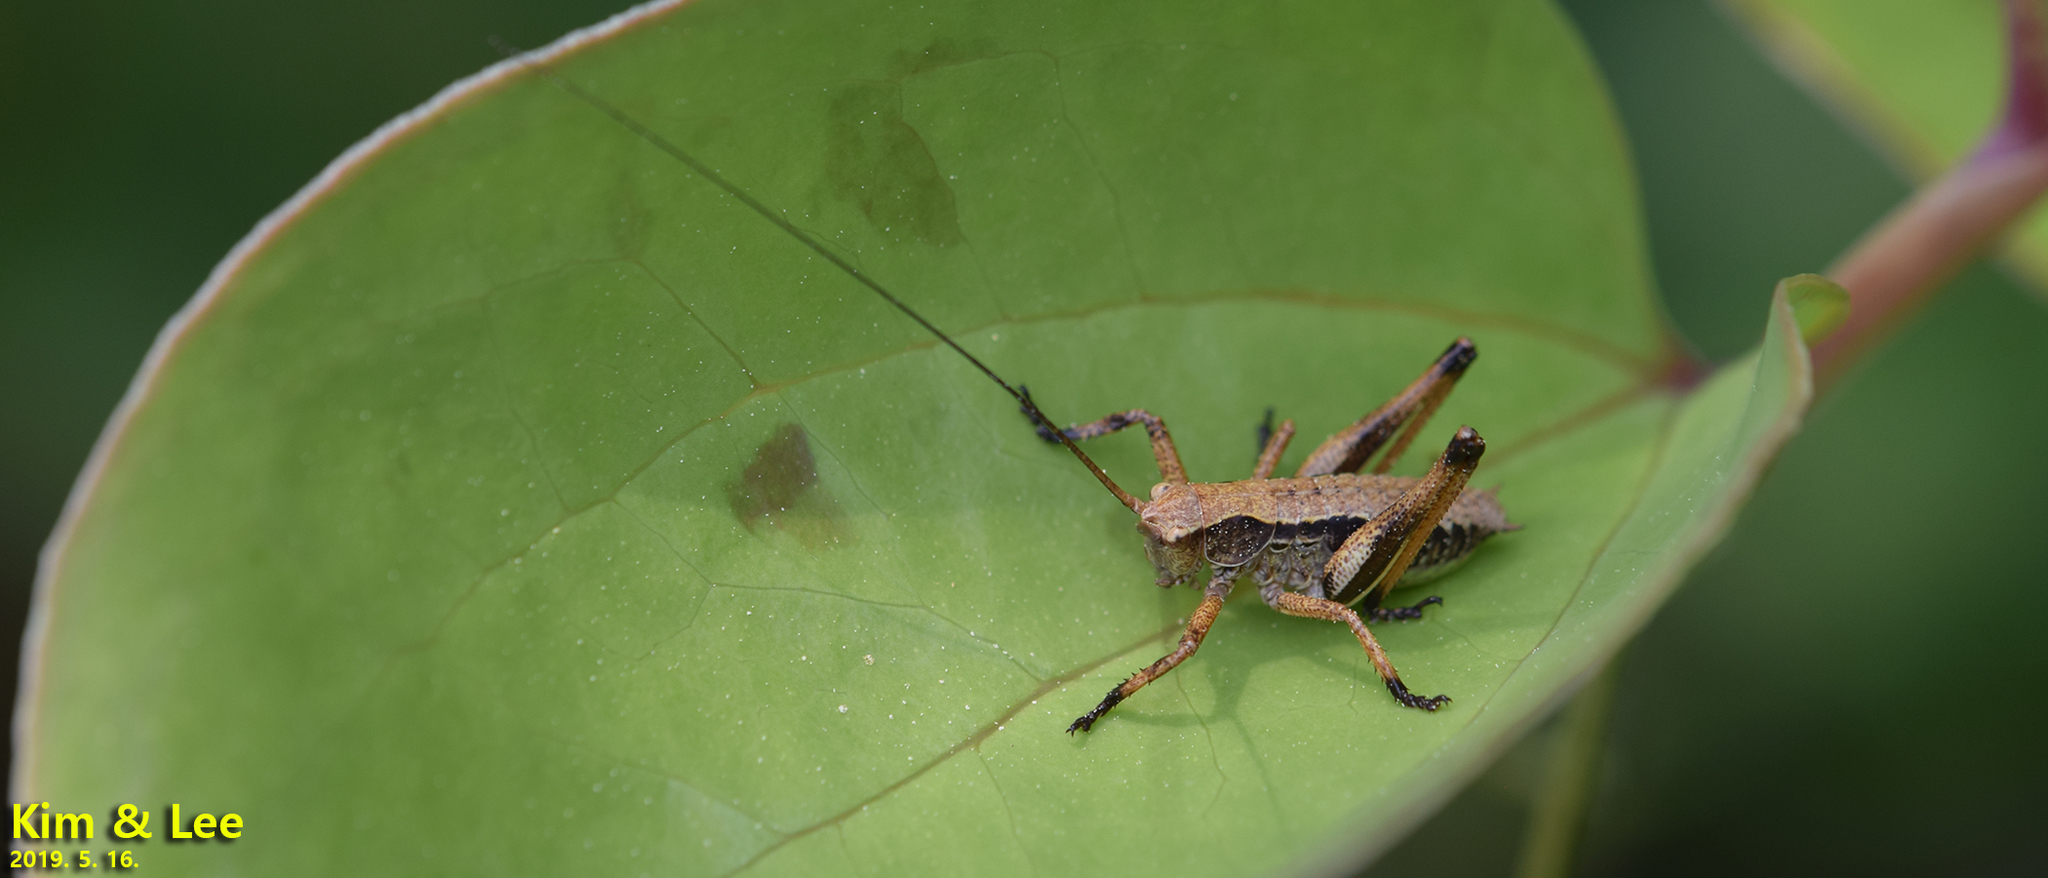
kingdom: Animalia
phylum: Arthropoda
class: Insecta
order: Orthoptera
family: Tettigoniidae
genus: Paratlanticus
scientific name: Paratlanticus ussuriensis
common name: Ussur brown katydid
